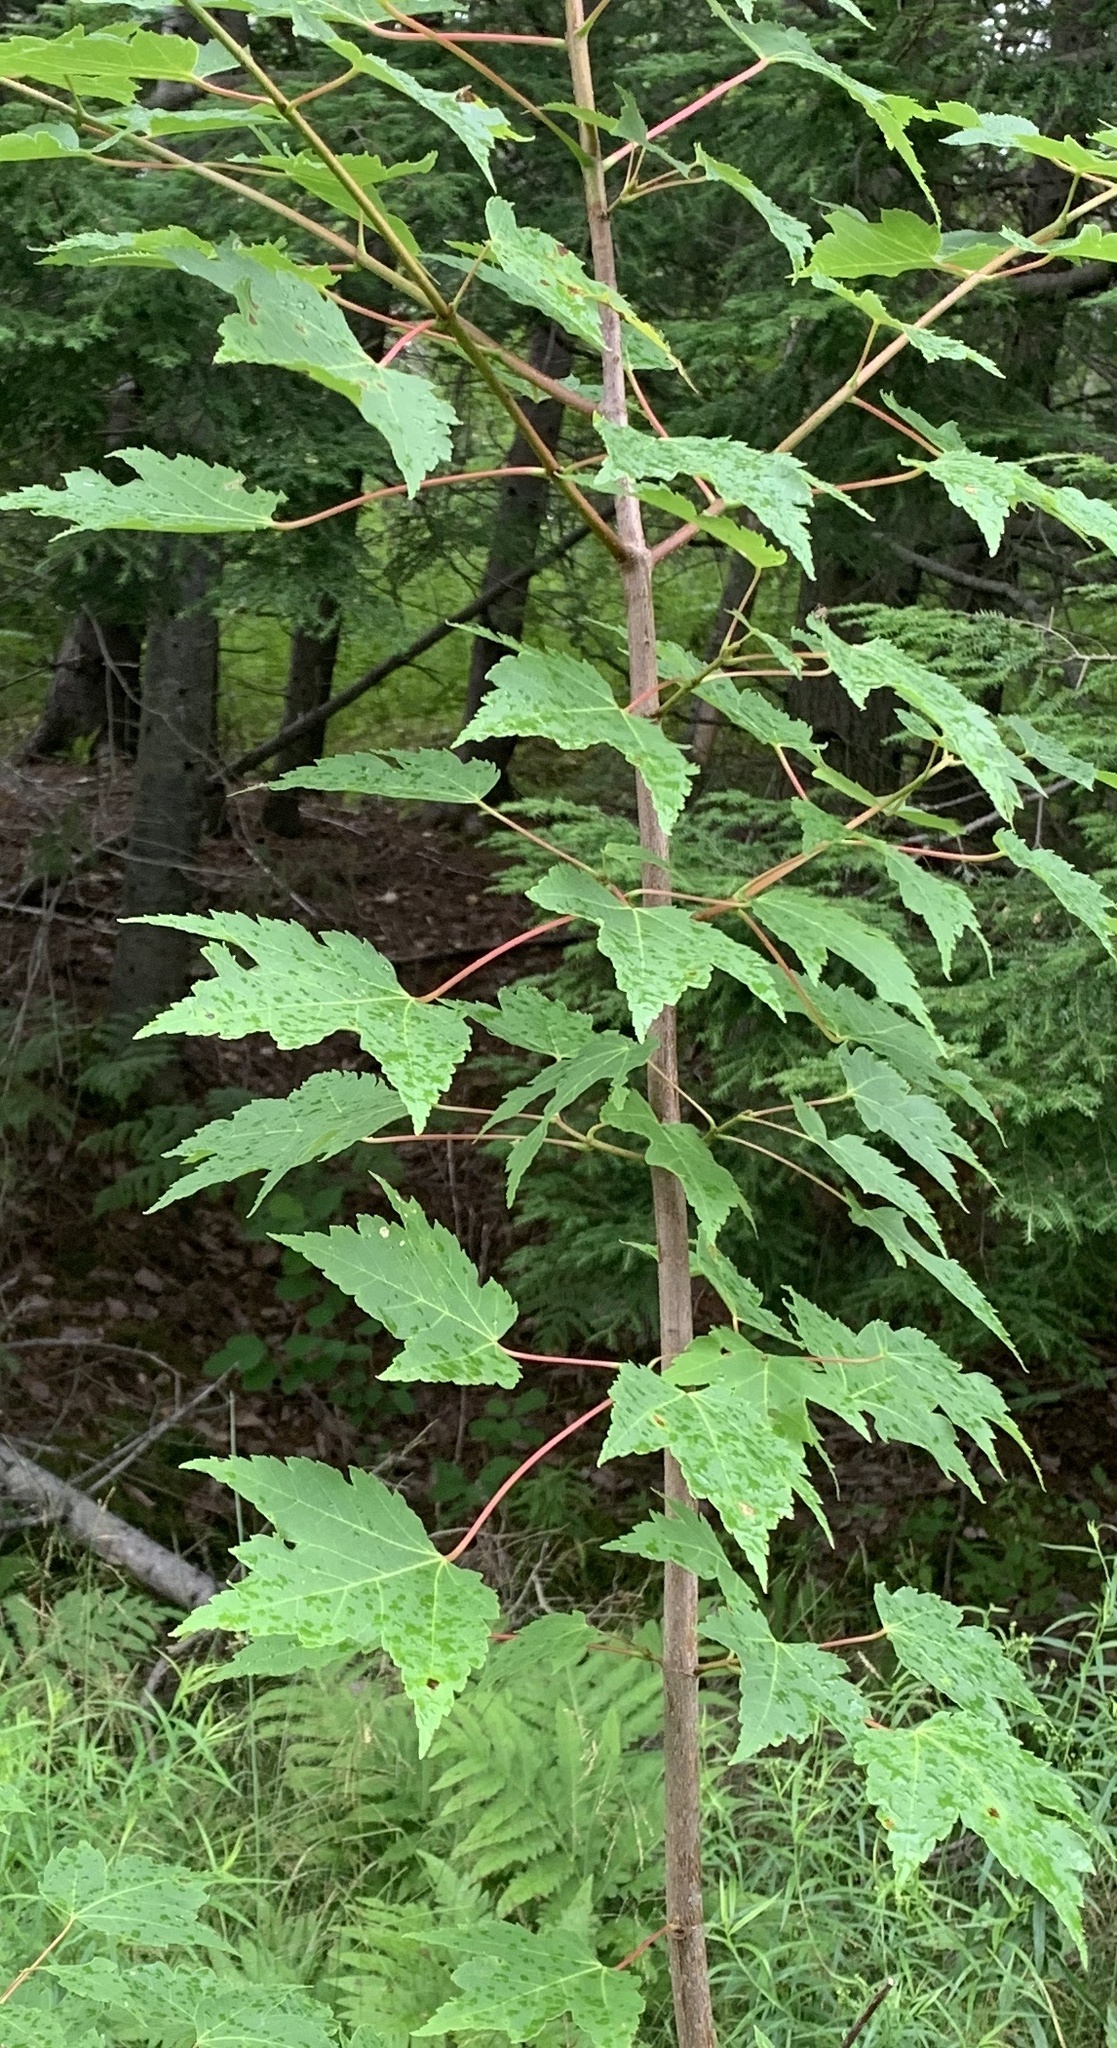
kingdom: Plantae
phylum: Tracheophyta
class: Magnoliopsida
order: Sapindales
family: Sapindaceae
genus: Acer
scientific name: Acer rubrum
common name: Red maple
